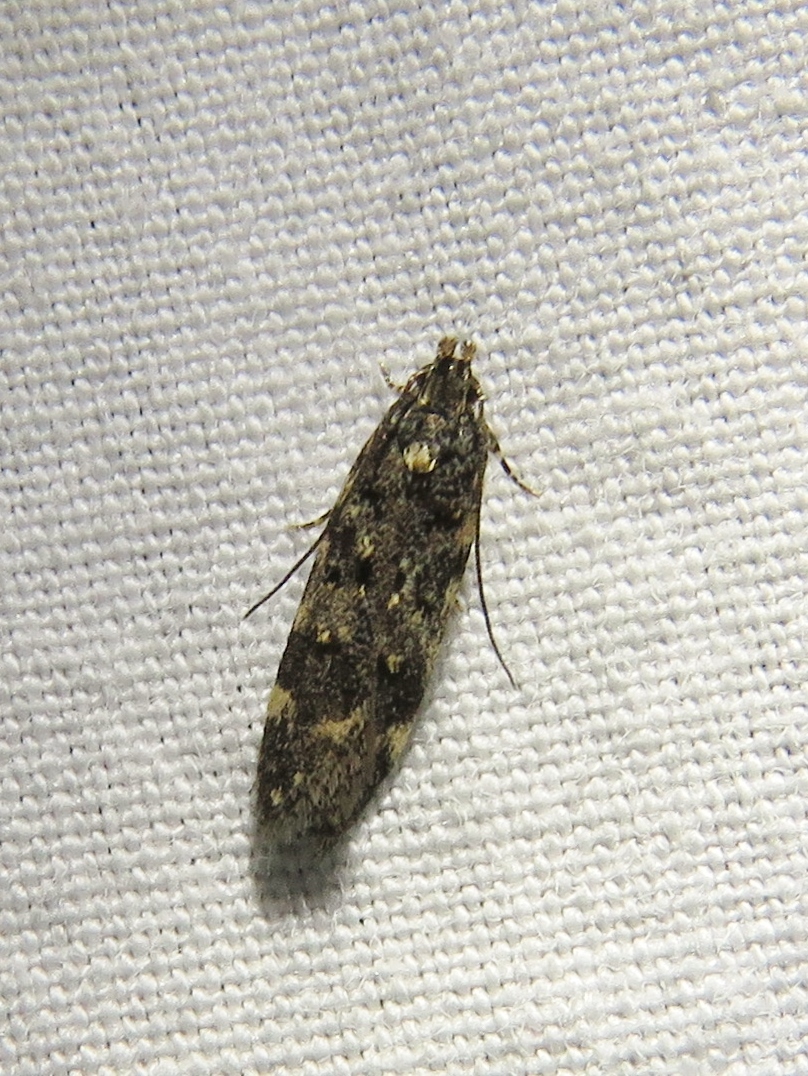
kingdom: Animalia
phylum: Arthropoda
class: Insecta
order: Lepidoptera
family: Gelechiidae
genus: Chionodes
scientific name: Chionodes bicostomaculella
